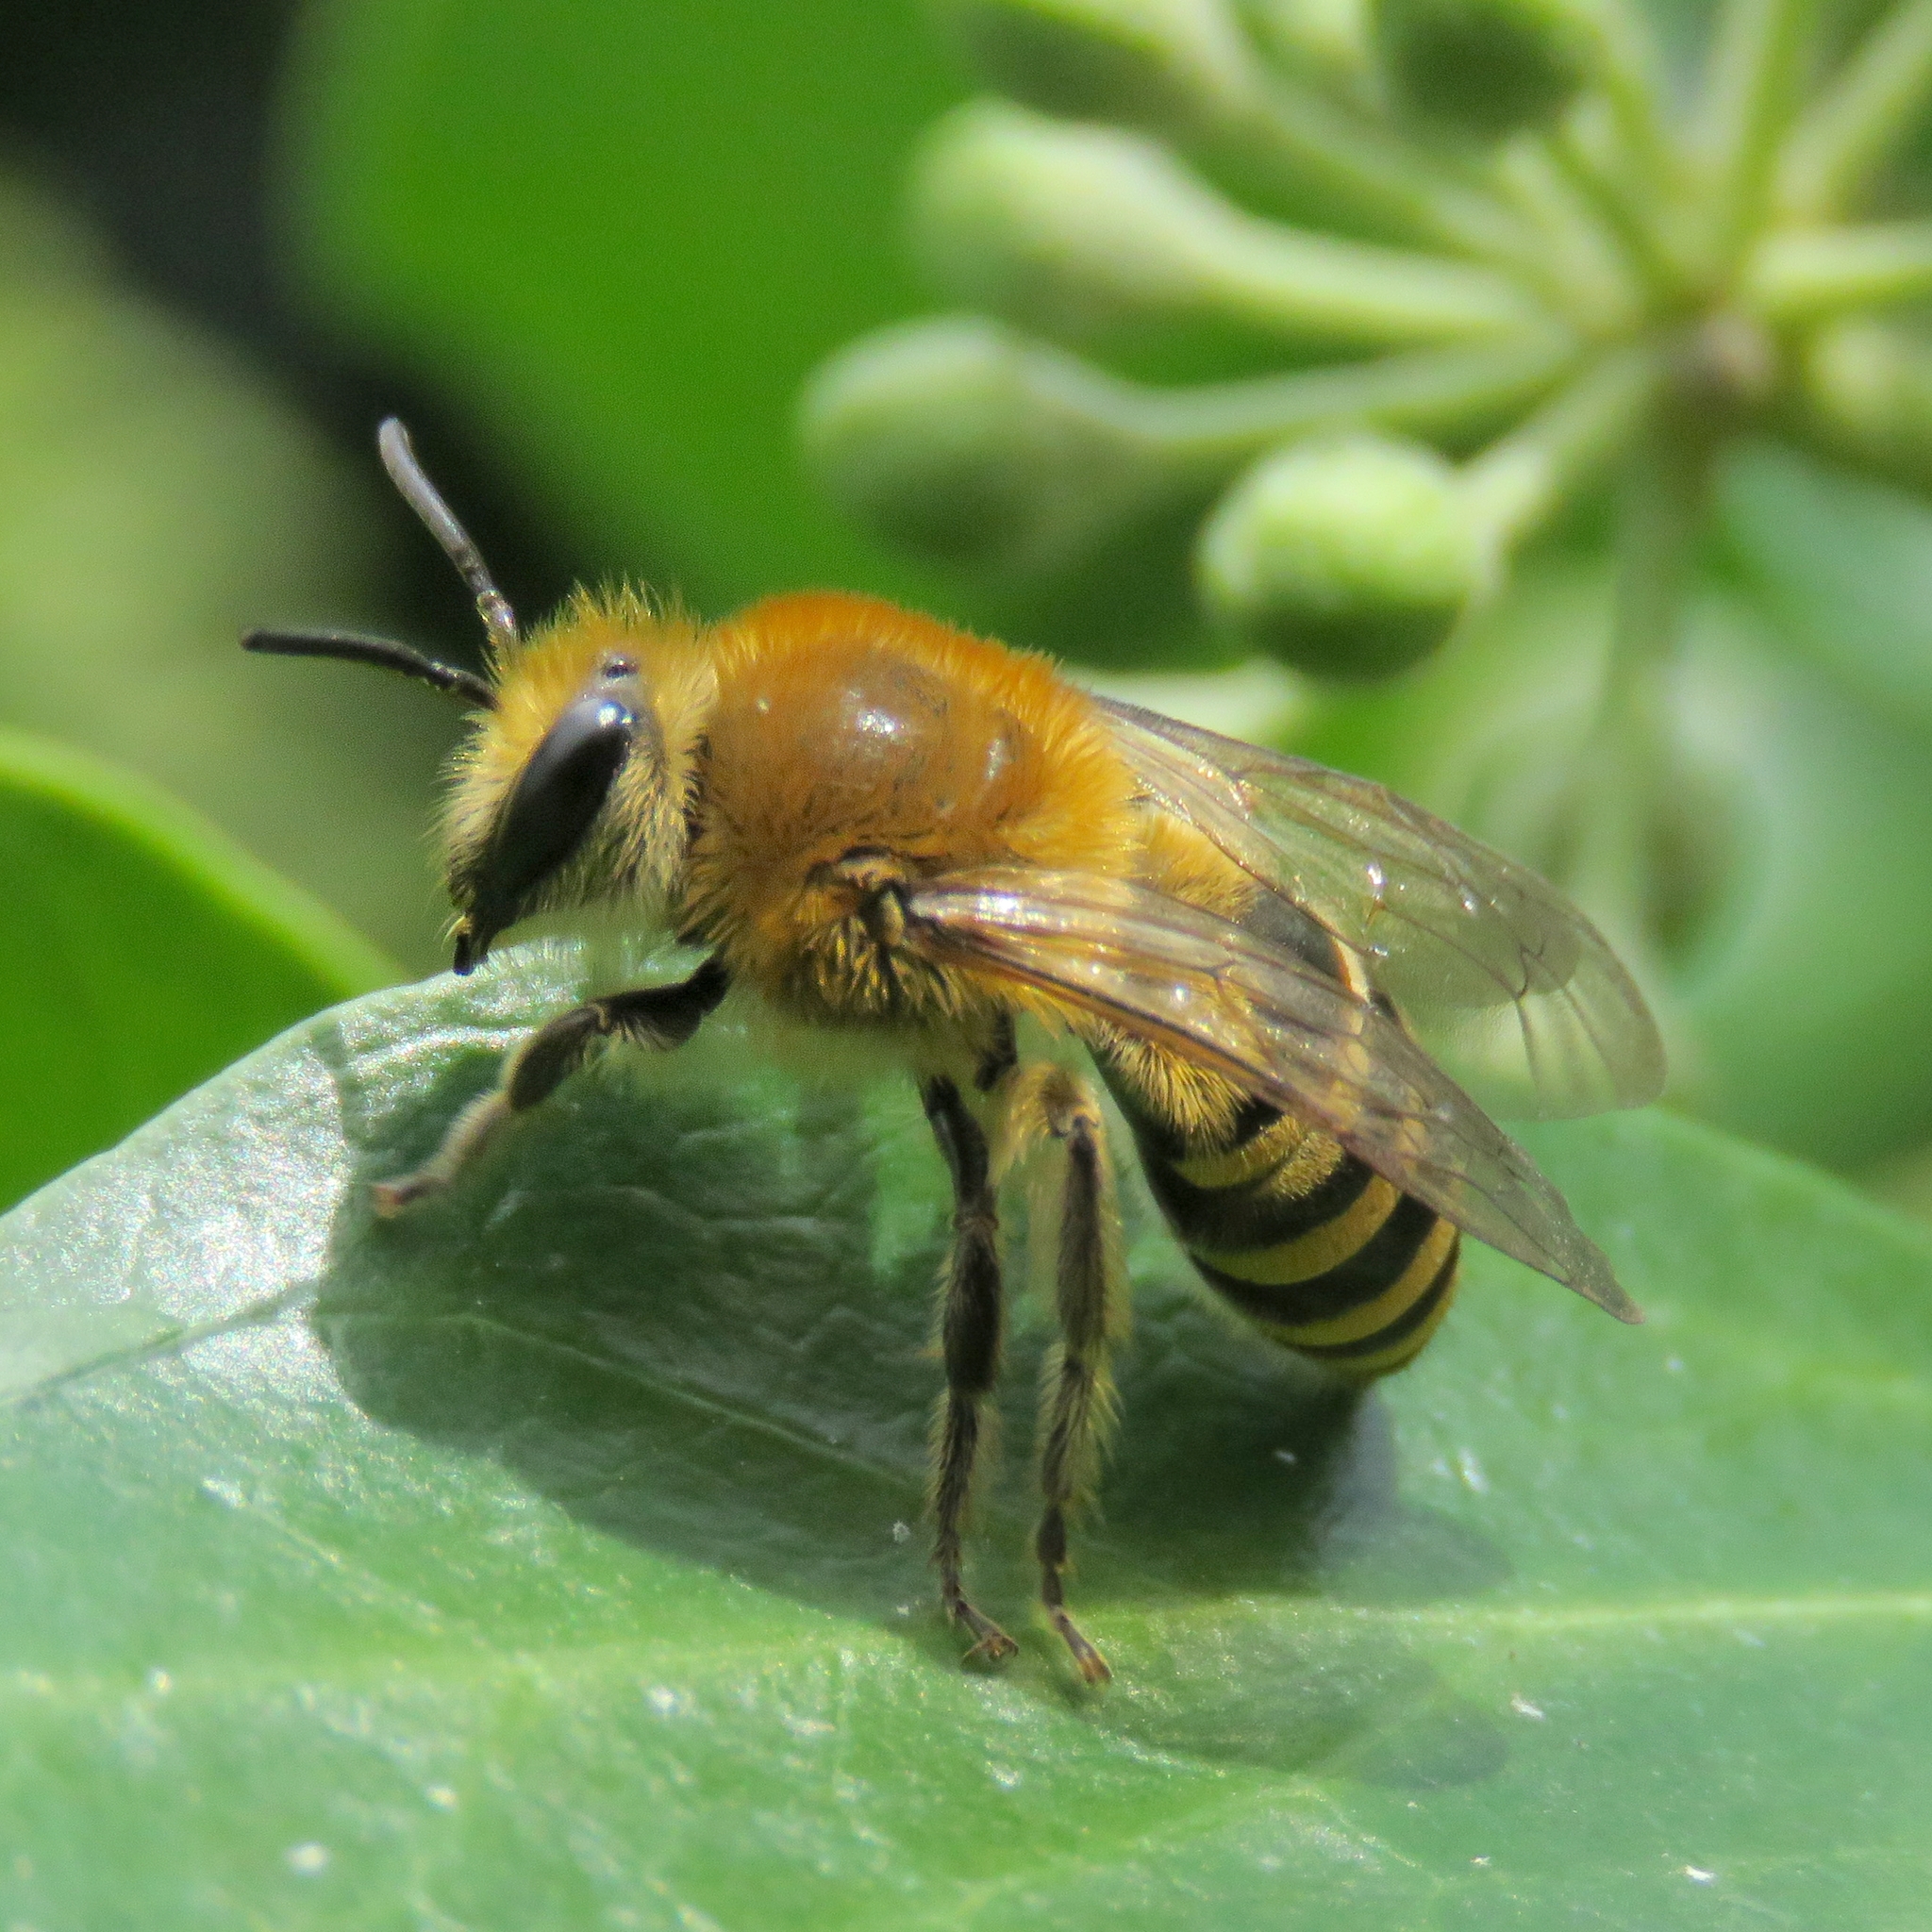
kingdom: Animalia
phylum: Arthropoda
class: Insecta
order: Hymenoptera
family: Colletidae
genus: Colletes
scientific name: Colletes hederae
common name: Ivy bee
